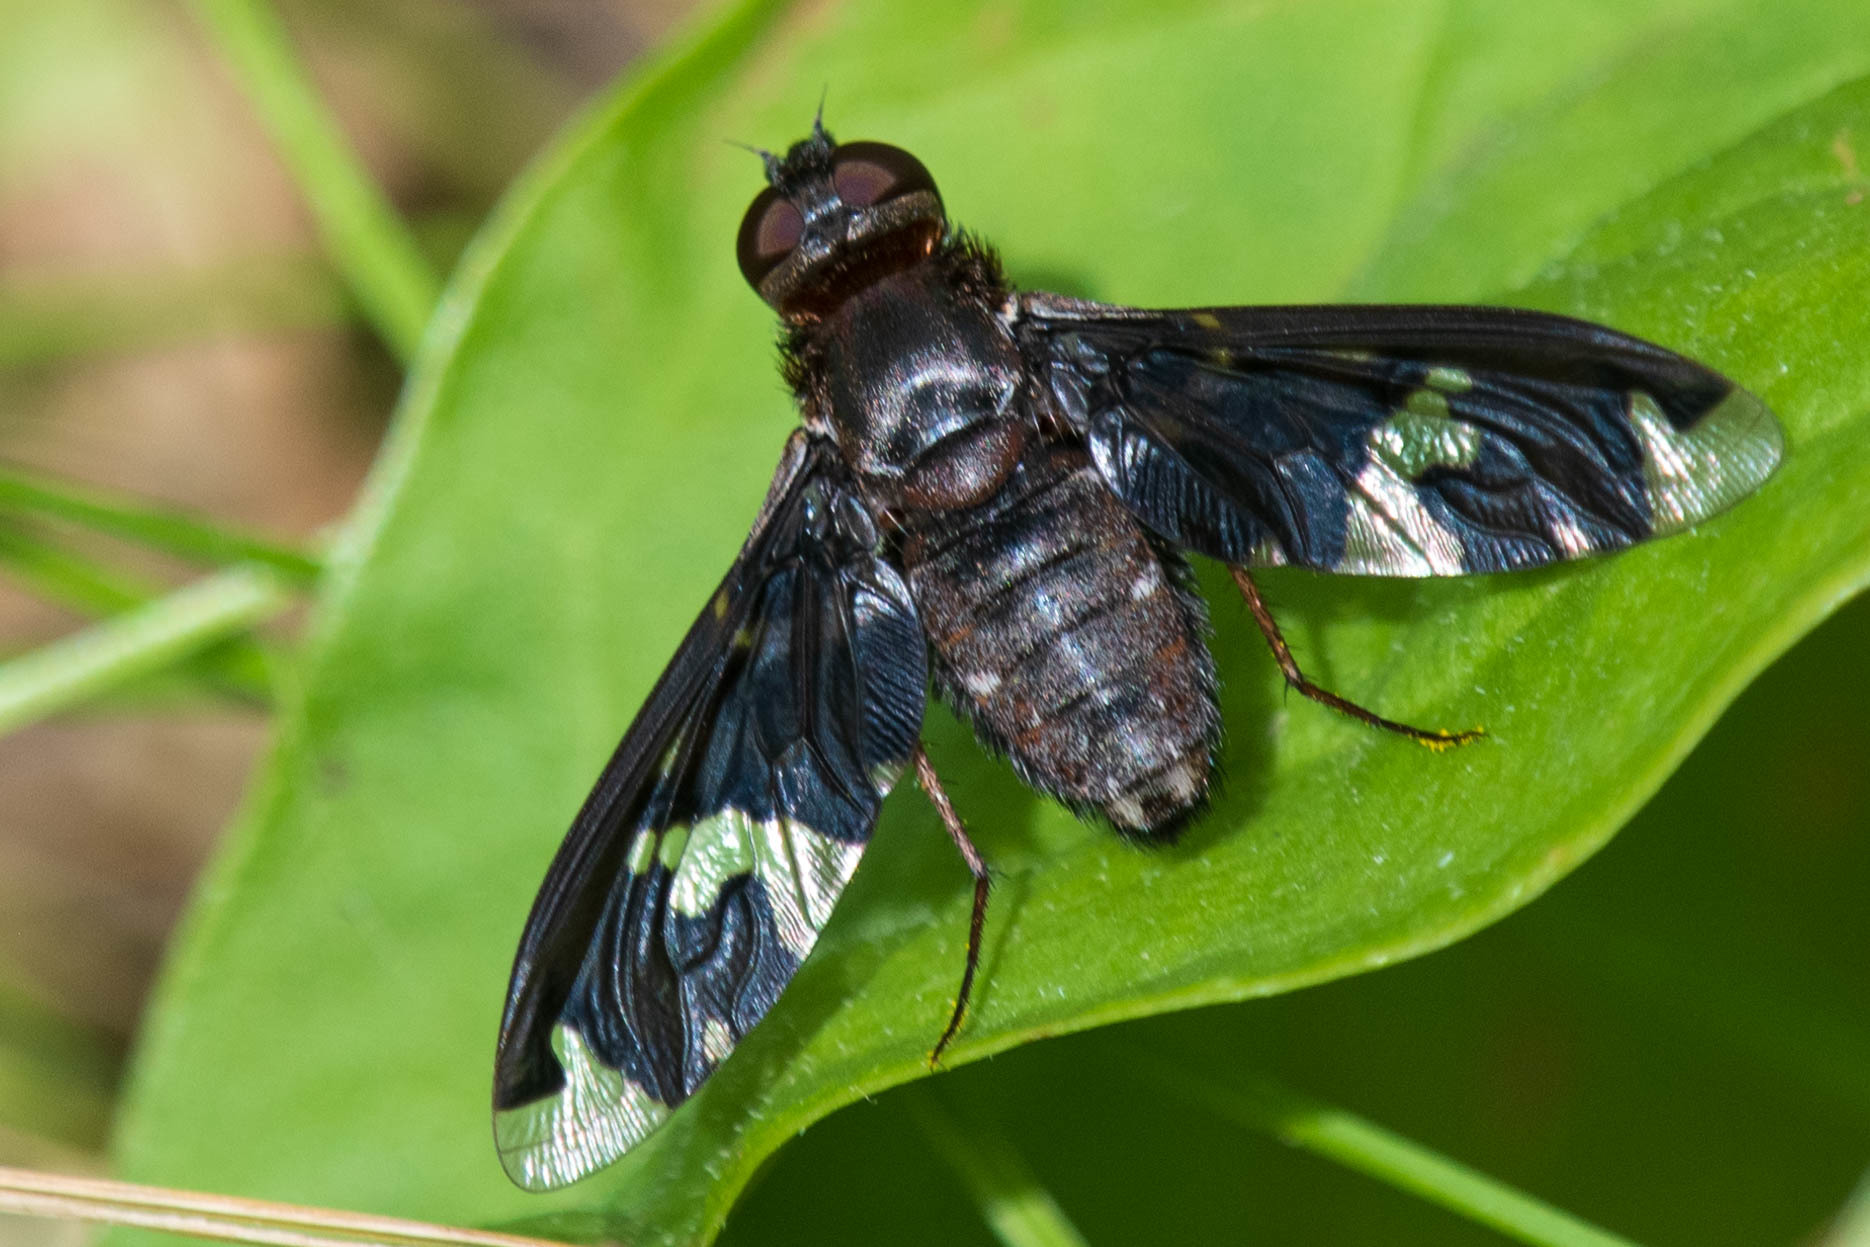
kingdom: Animalia
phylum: Arthropoda
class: Insecta
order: Diptera
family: Bombyliidae
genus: Exoprosopa
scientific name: Exoprosopa decora
